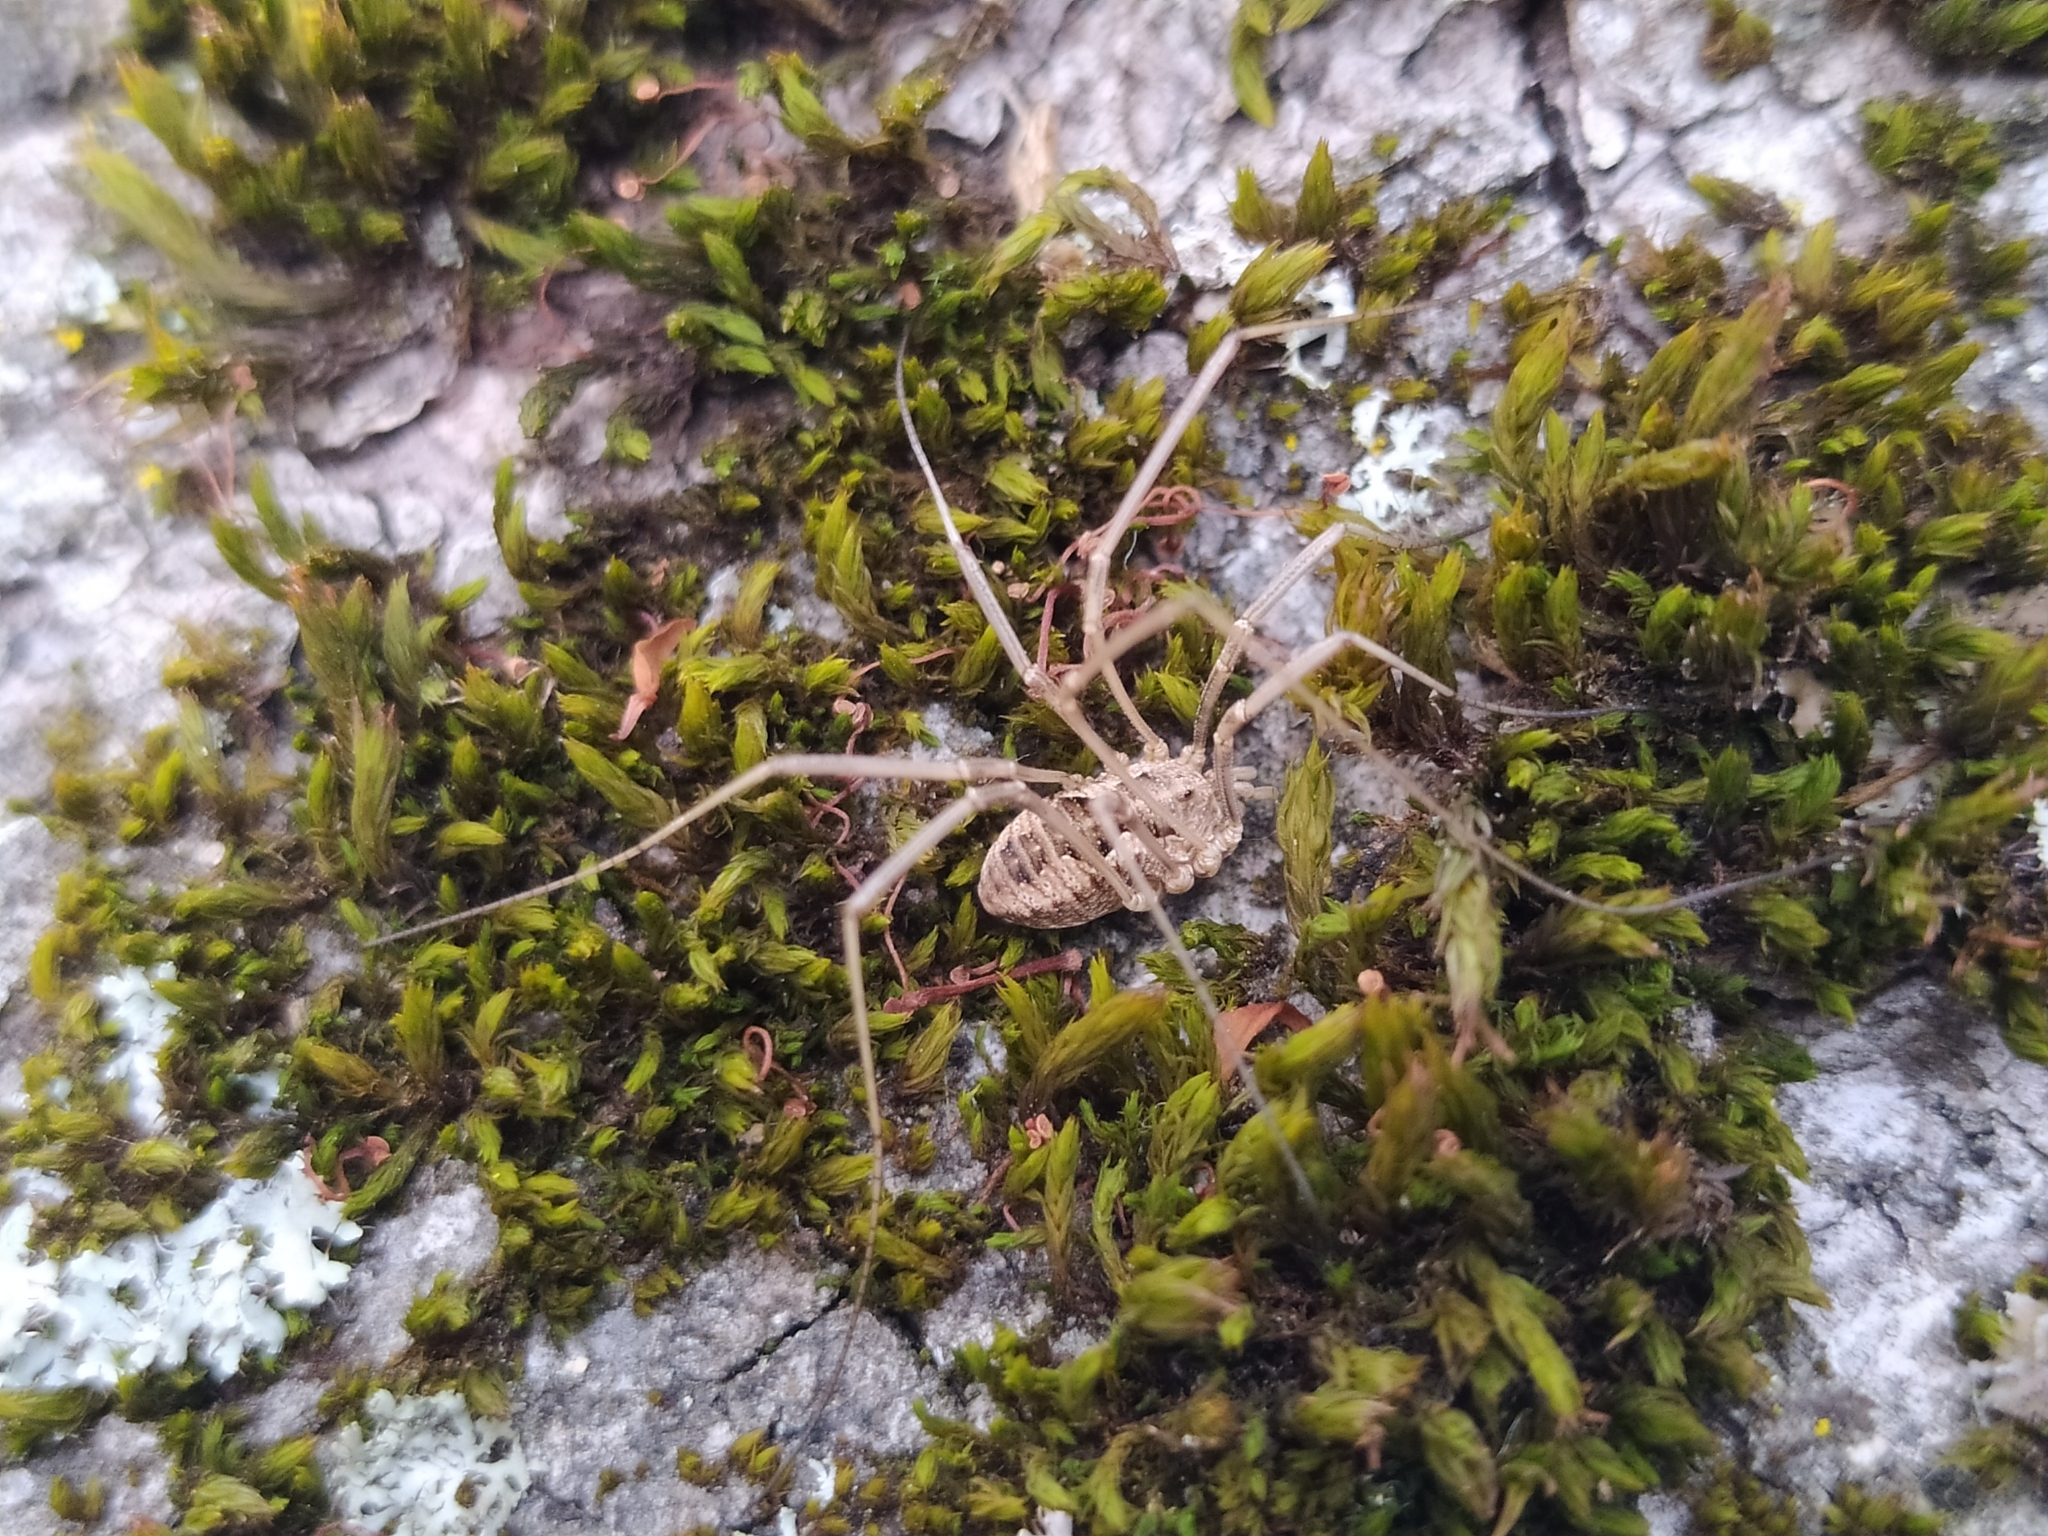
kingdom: Animalia
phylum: Arthropoda
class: Arachnida
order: Opiliones
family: Phalangiidae
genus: Phalangium
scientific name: Phalangium opilio
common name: Daddy longleg
